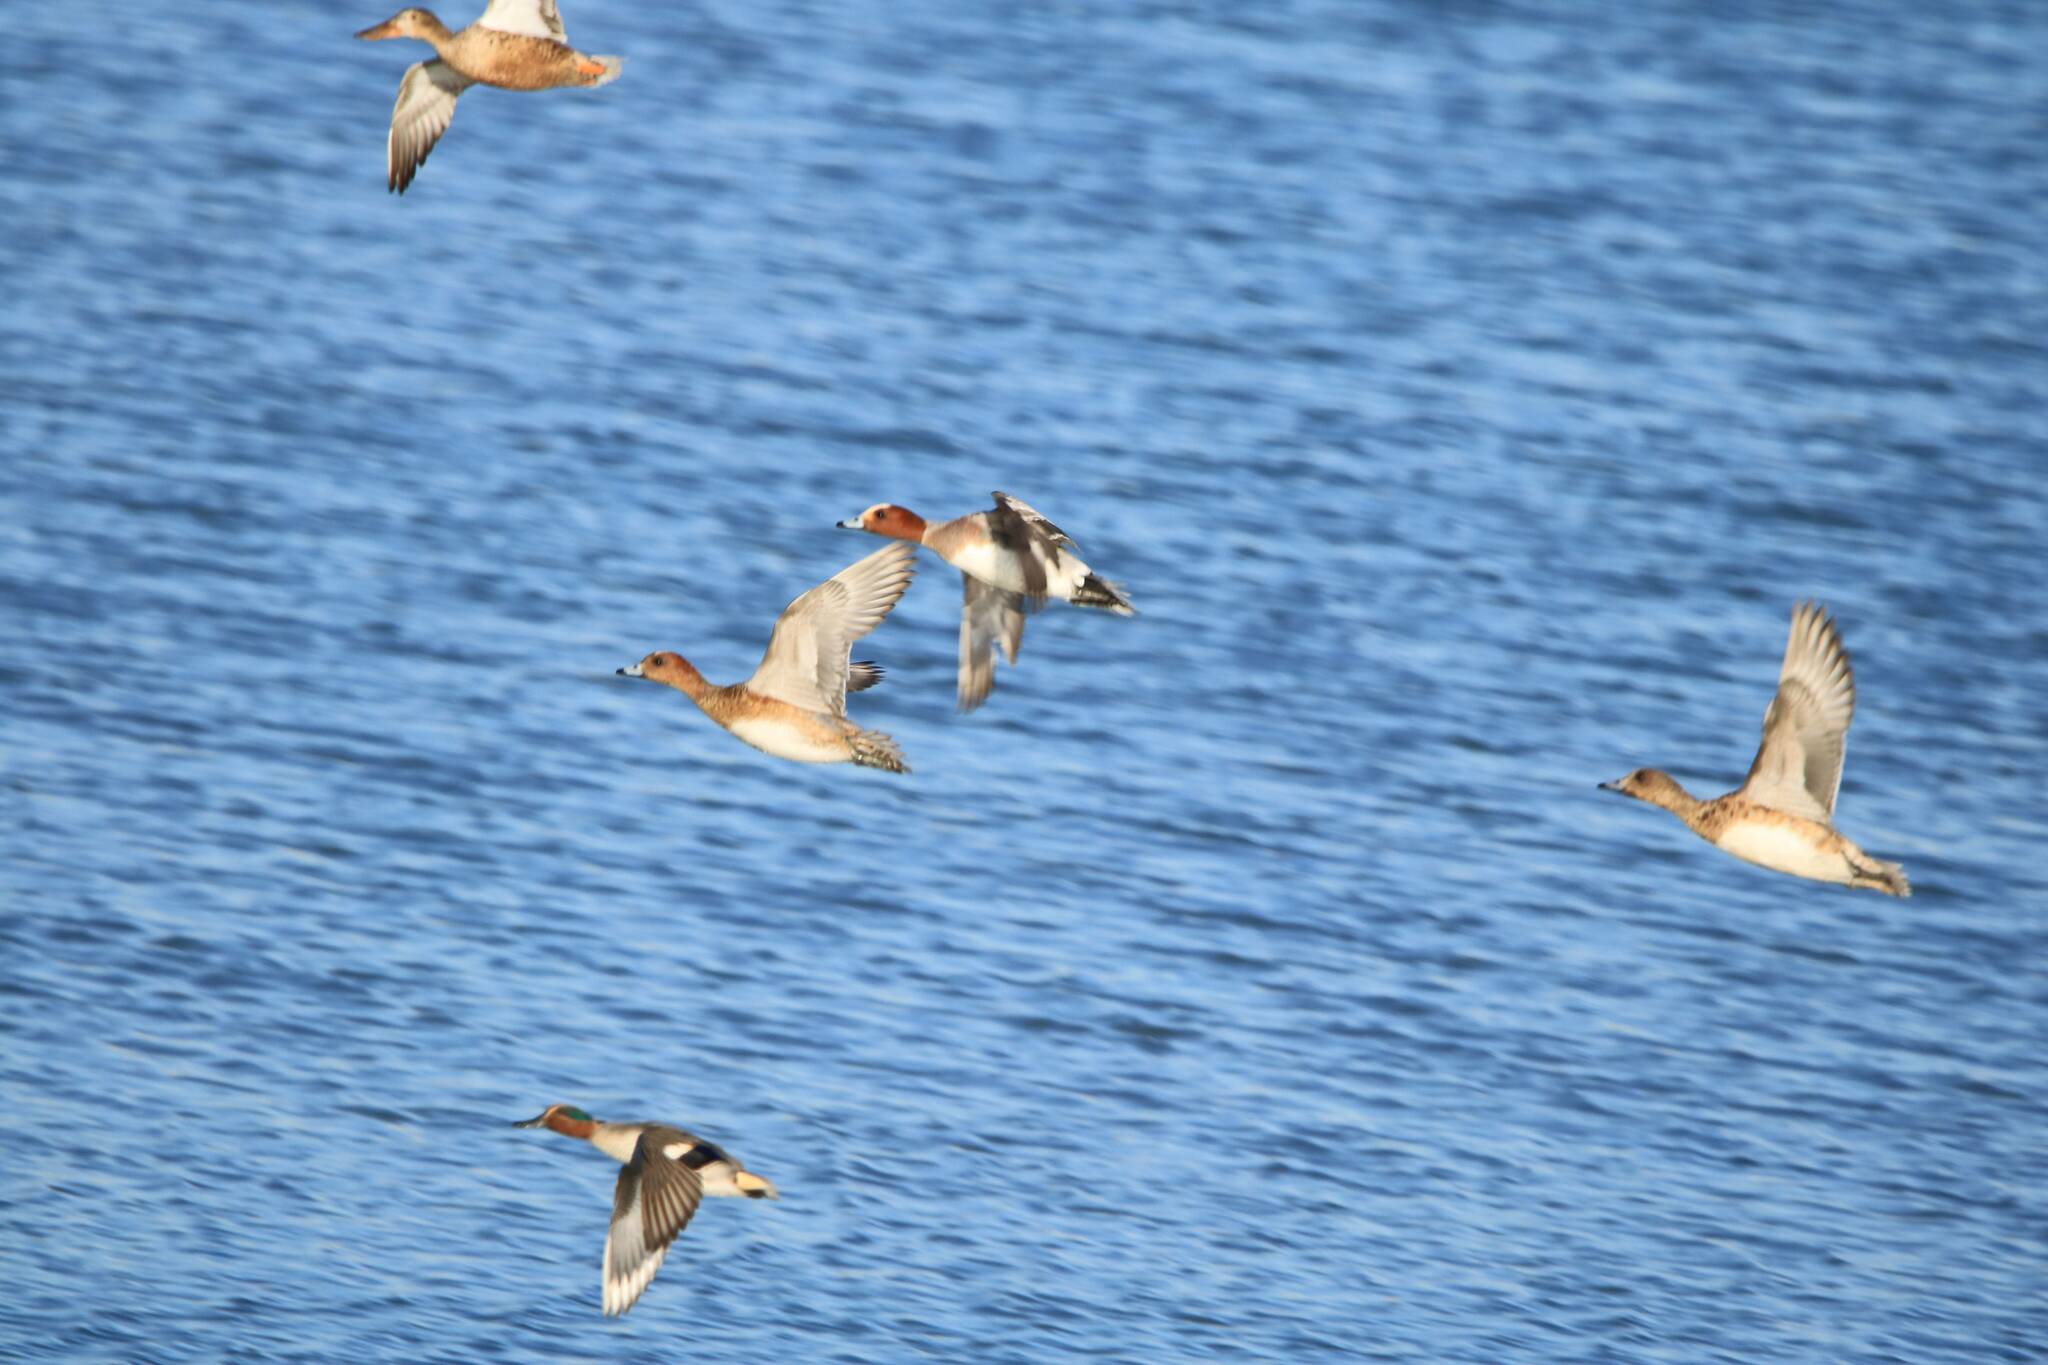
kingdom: Animalia
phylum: Chordata
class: Aves
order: Anseriformes
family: Anatidae
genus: Mareca
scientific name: Mareca penelope
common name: Eurasian wigeon
